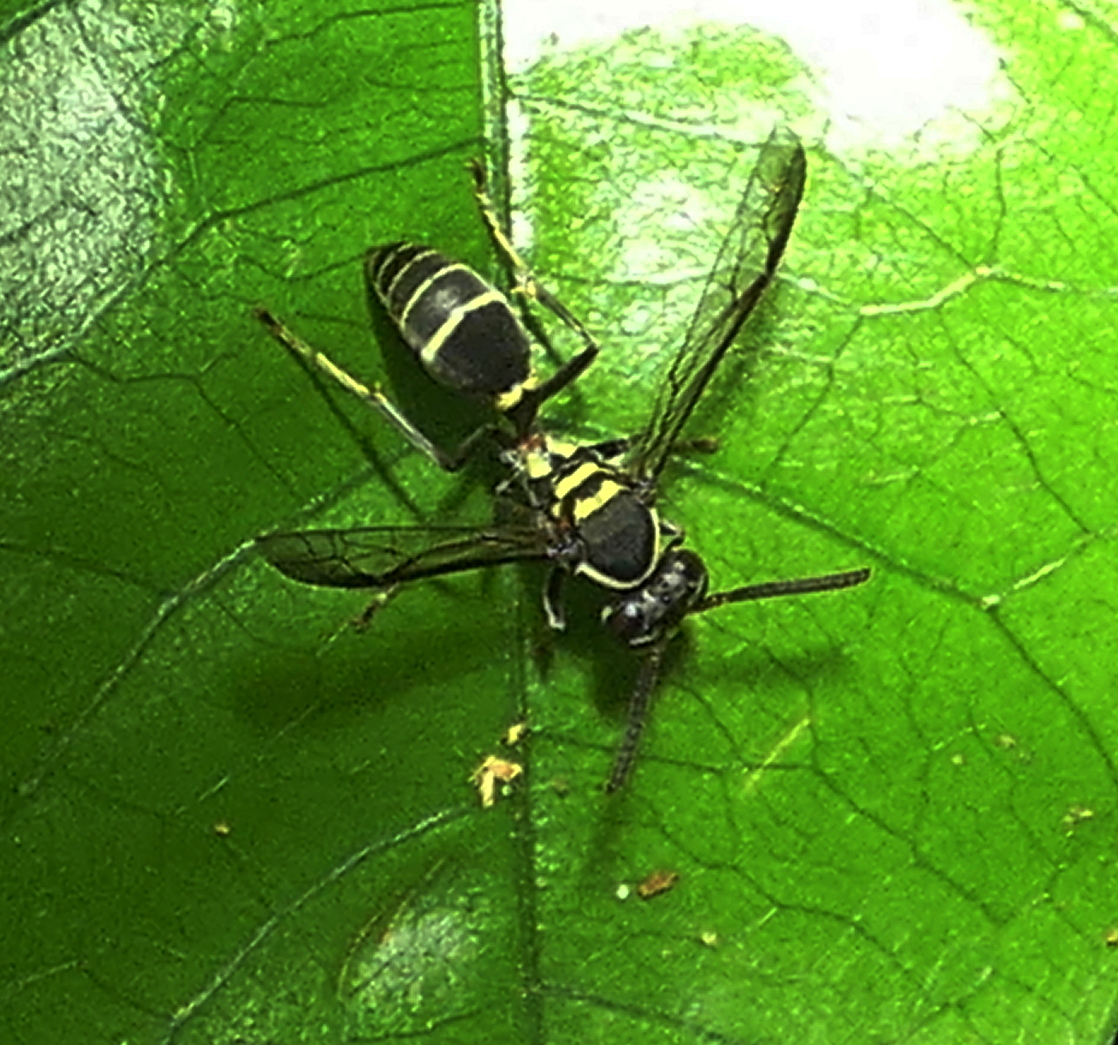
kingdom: Animalia
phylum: Arthropoda
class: Insecta
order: Hymenoptera
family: Eumenidae
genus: Polybia
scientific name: Polybia occidentalis
